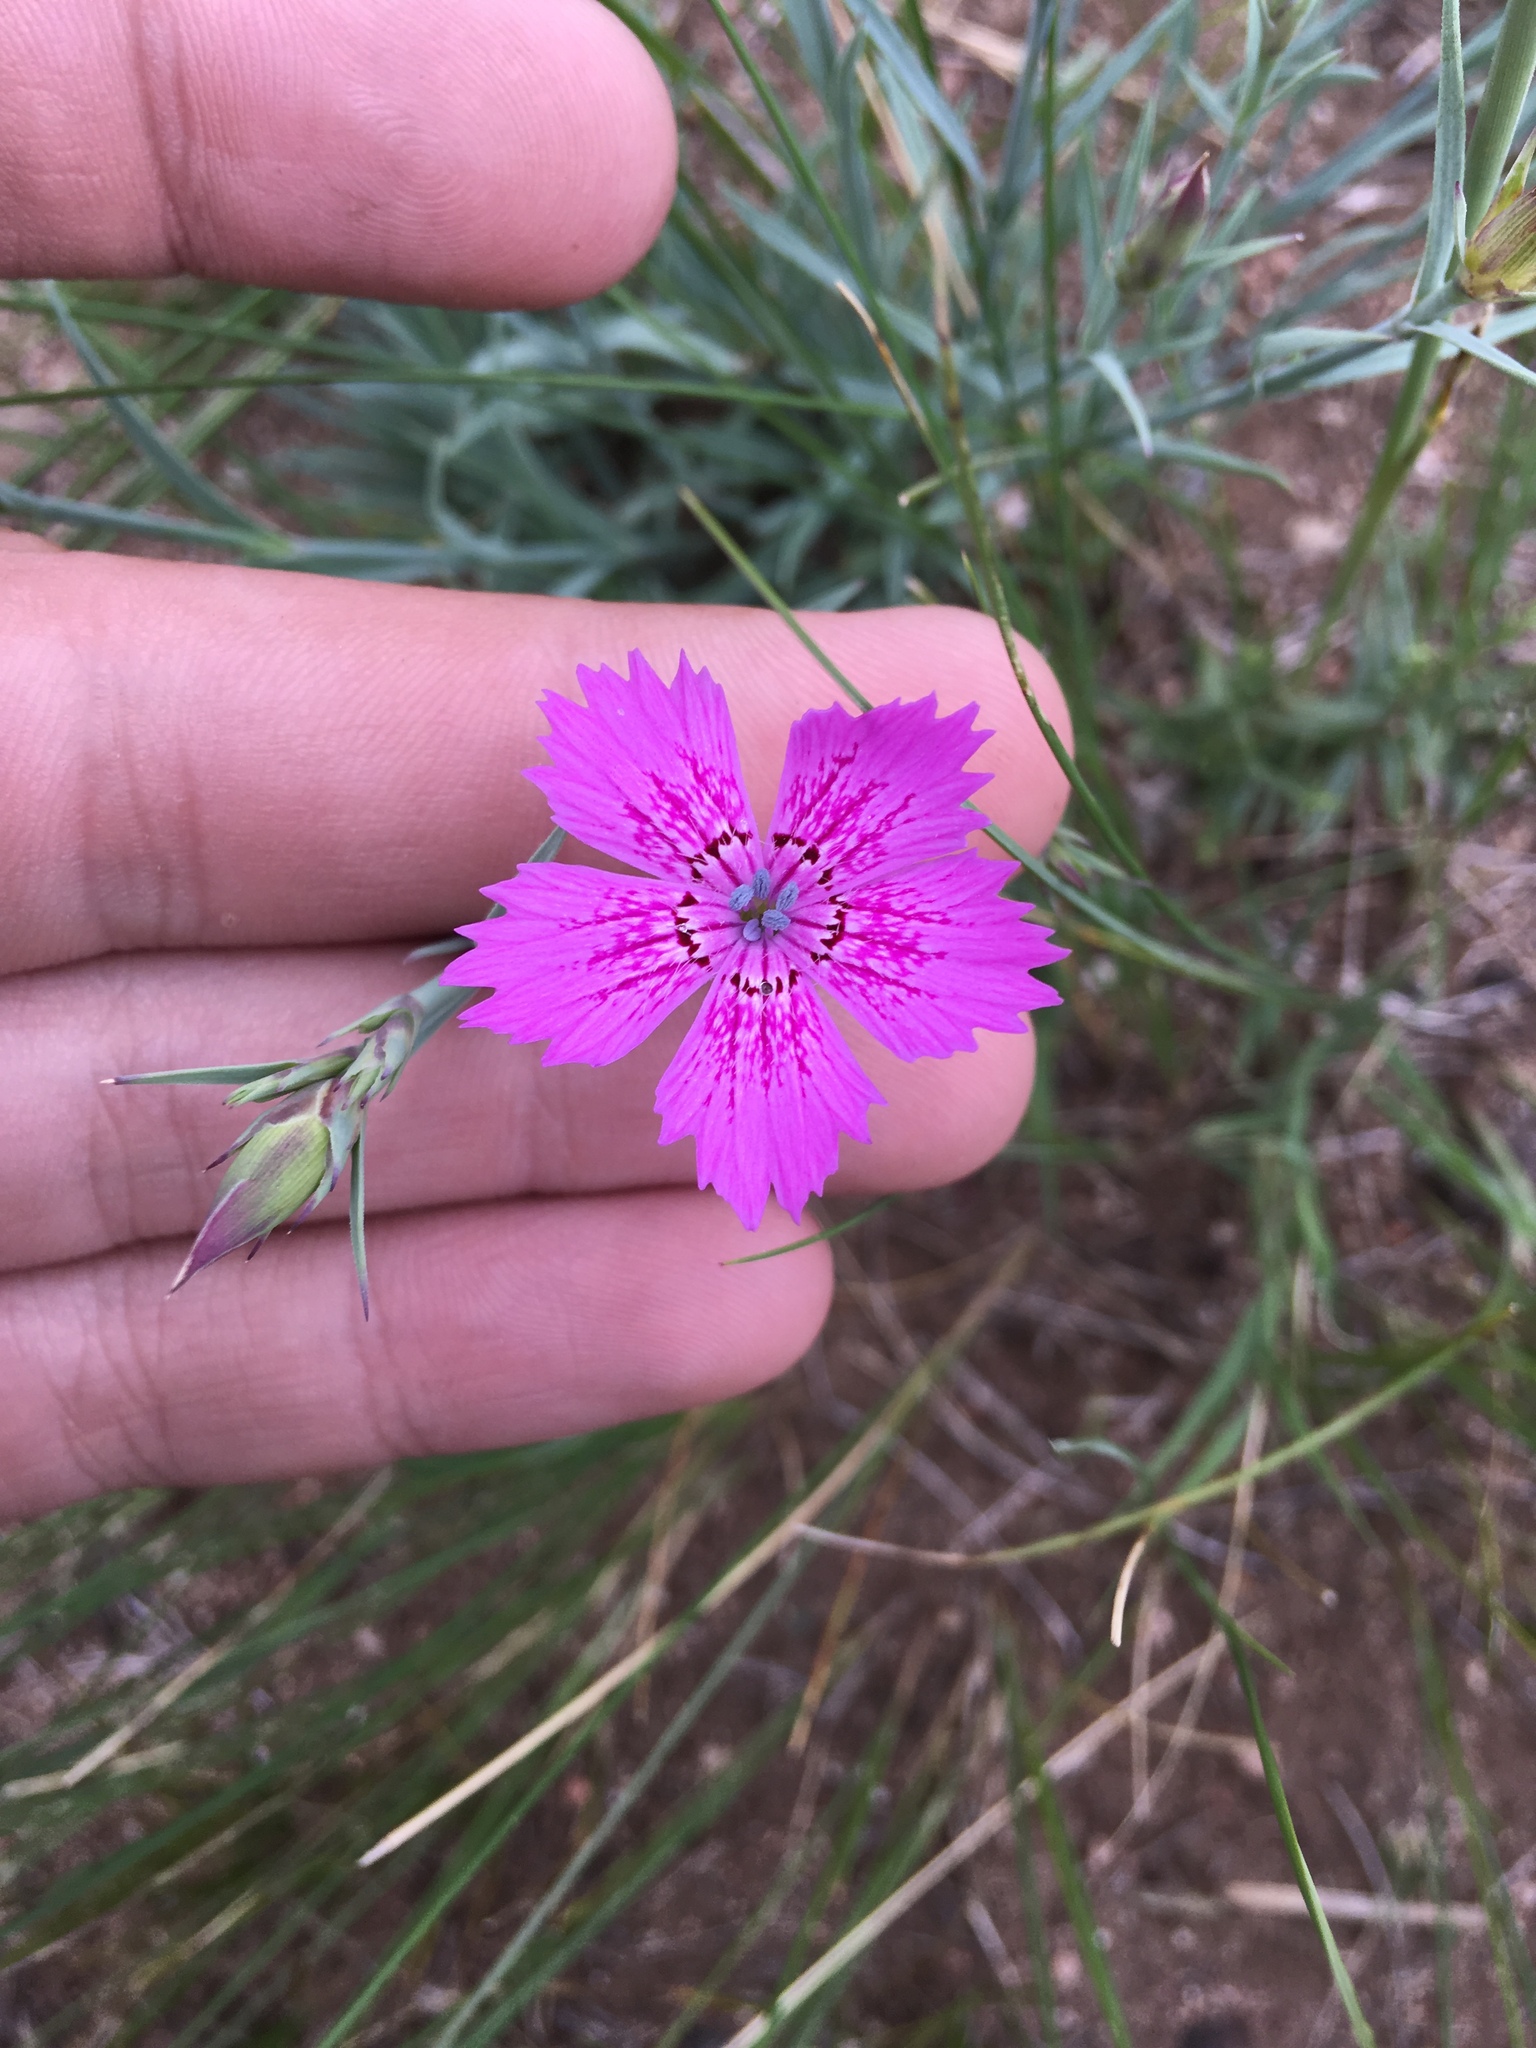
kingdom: Plantae
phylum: Tracheophyta
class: Magnoliopsida
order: Caryophyllales
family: Caryophyllaceae
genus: Dianthus
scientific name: Dianthus chinensis
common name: Rainbow pink
